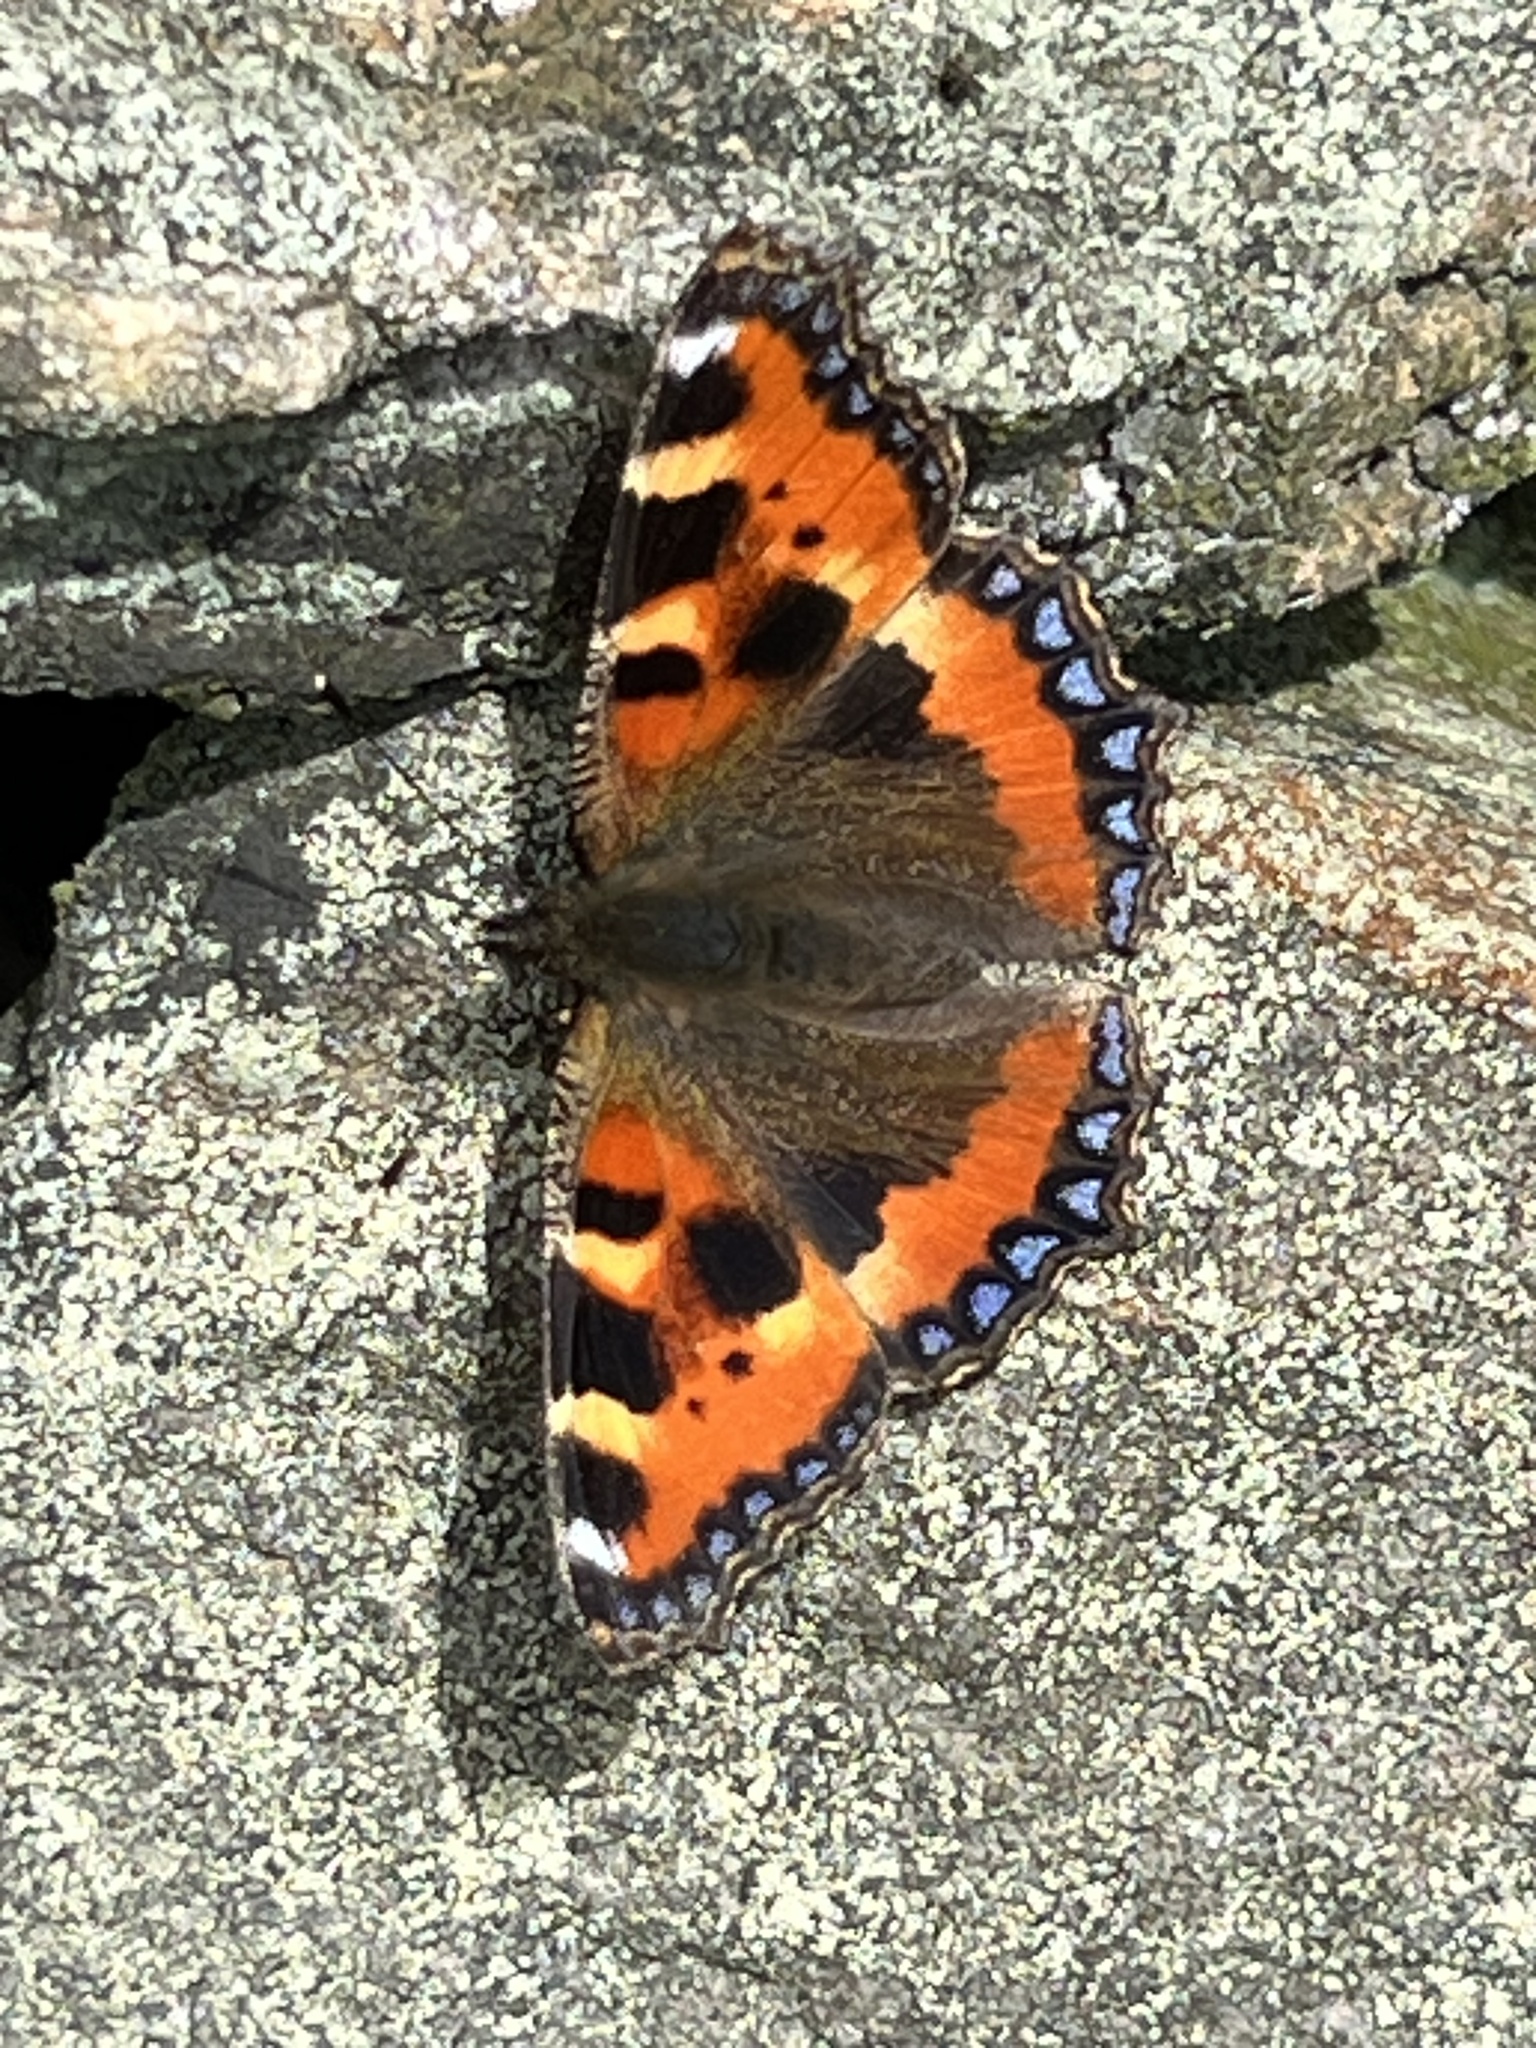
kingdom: Animalia
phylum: Arthropoda
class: Insecta
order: Lepidoptera
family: Nymphalidae
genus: Aglais
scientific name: Aglais urticae
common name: Small tortoiseshell
